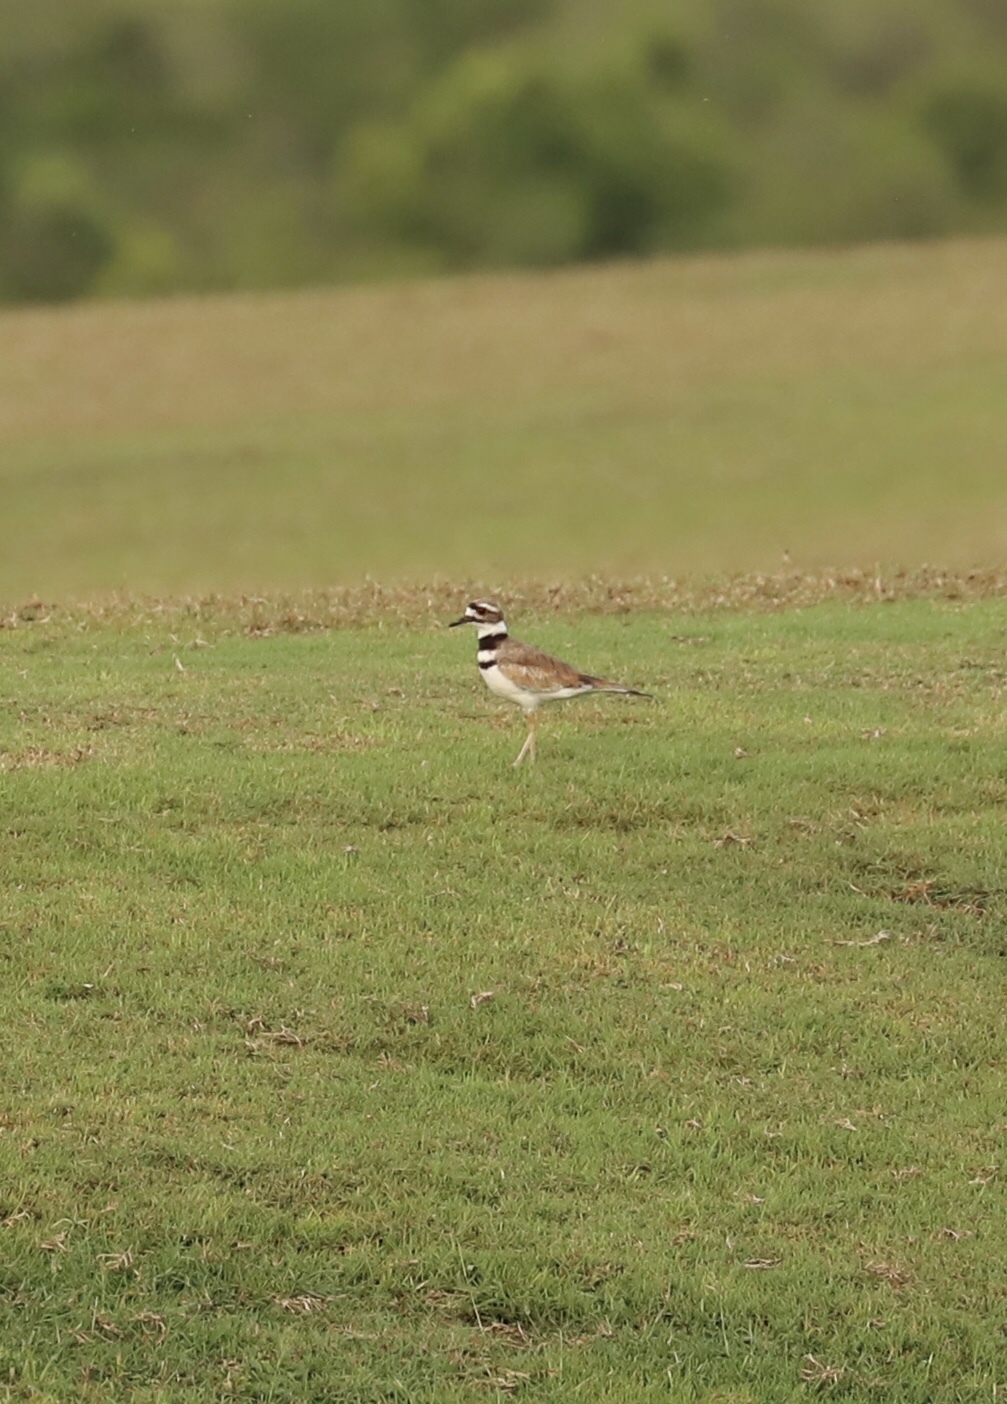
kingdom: Animalia
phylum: Chordata
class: Aves
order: Charadriiformes
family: Charadriidae
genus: Charadrius
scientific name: Charadrius vociferus
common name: Killdeer
